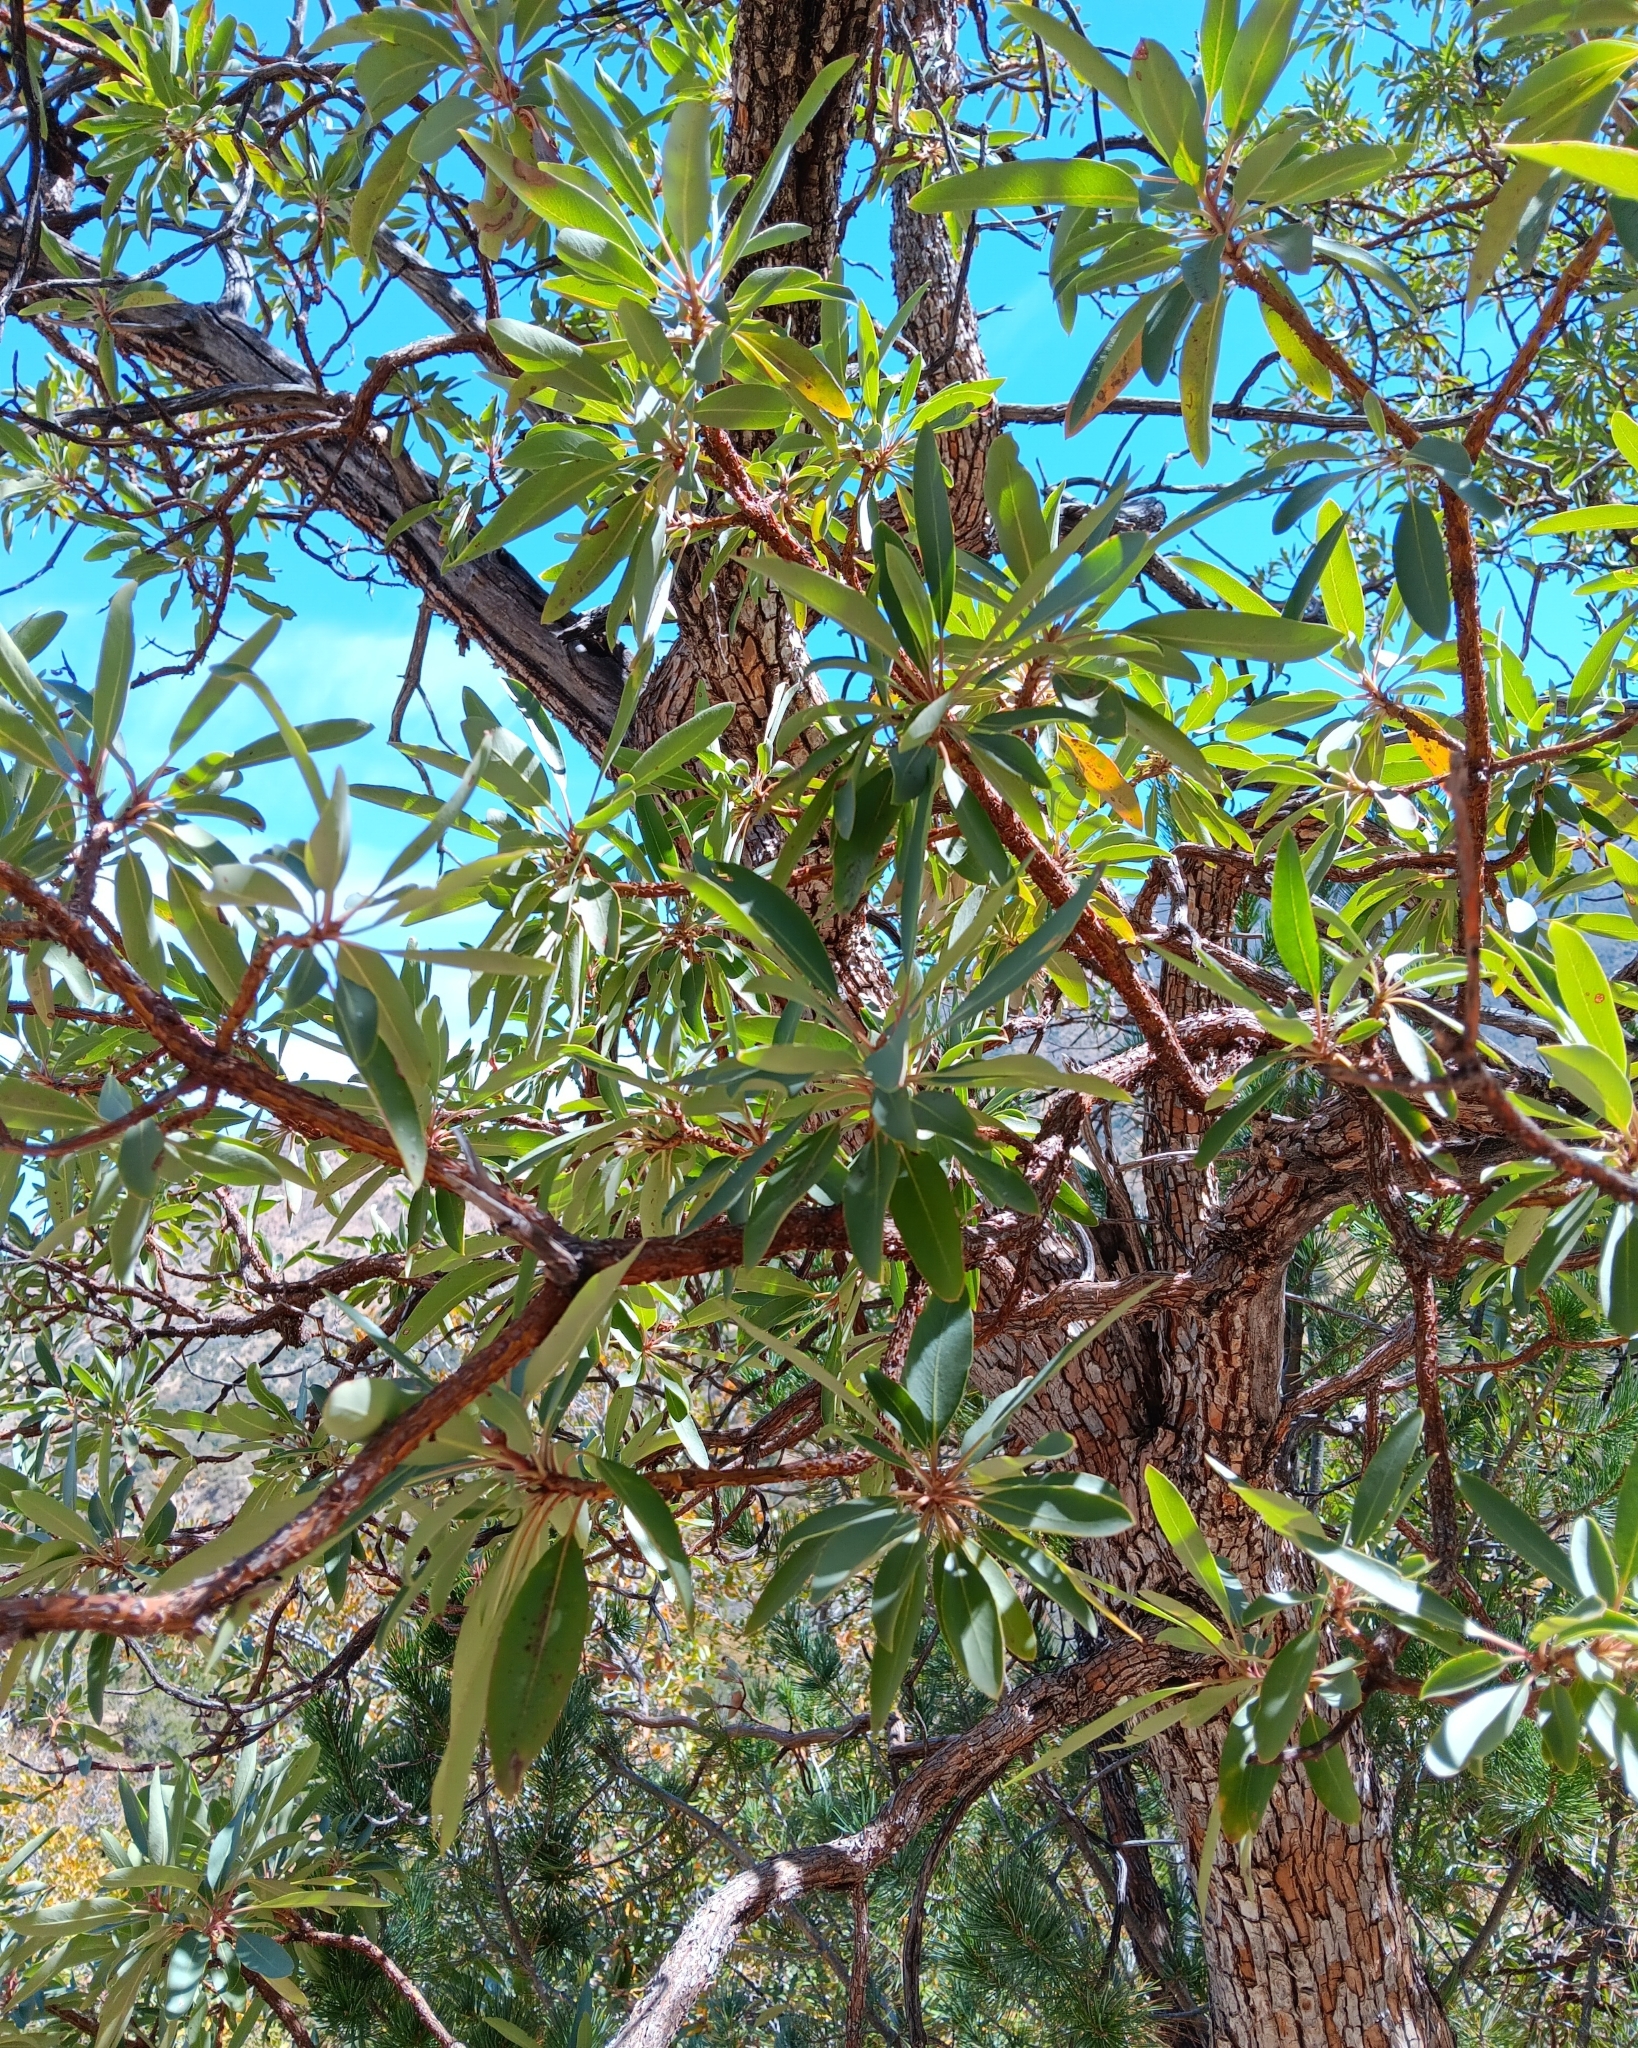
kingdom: Plantae
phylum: Tracheophyta
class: Magnoliopsida
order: Ericales
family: Ericaceae
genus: Arbutus
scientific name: Arbutus arizonica
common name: Arizona madrone
